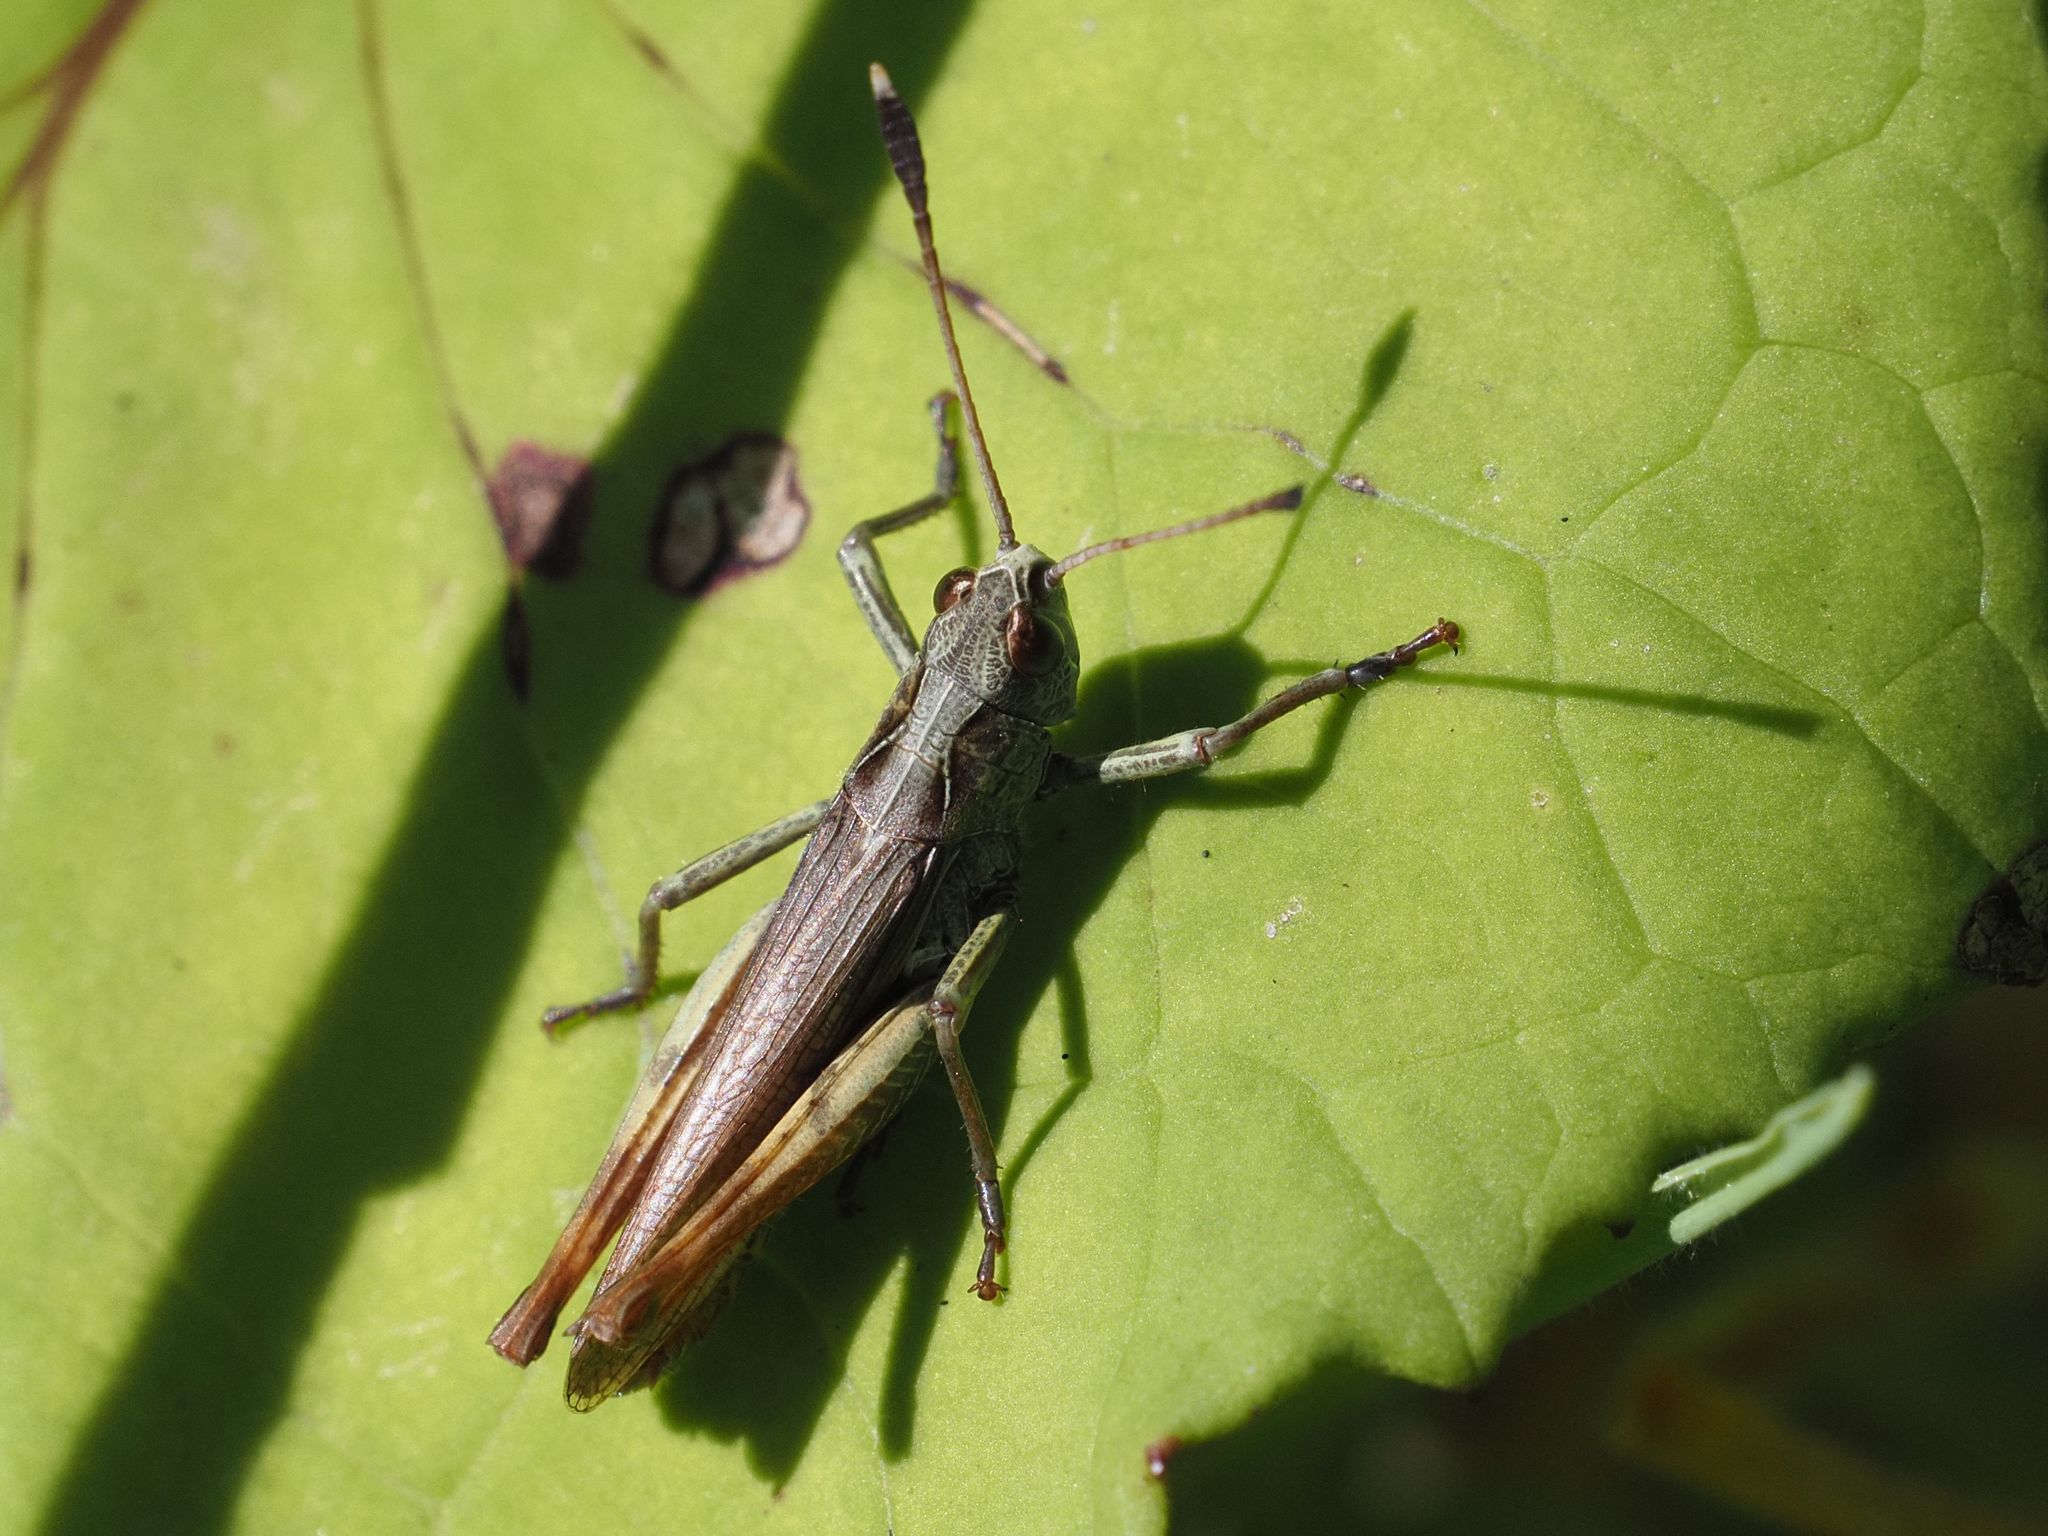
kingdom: Animalia
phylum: Arthropoda
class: Insecta
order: Orthoptera
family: Acrididae
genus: Gomphocerippus
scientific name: Gomphocerippus rufus
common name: Rufous grasshopper
